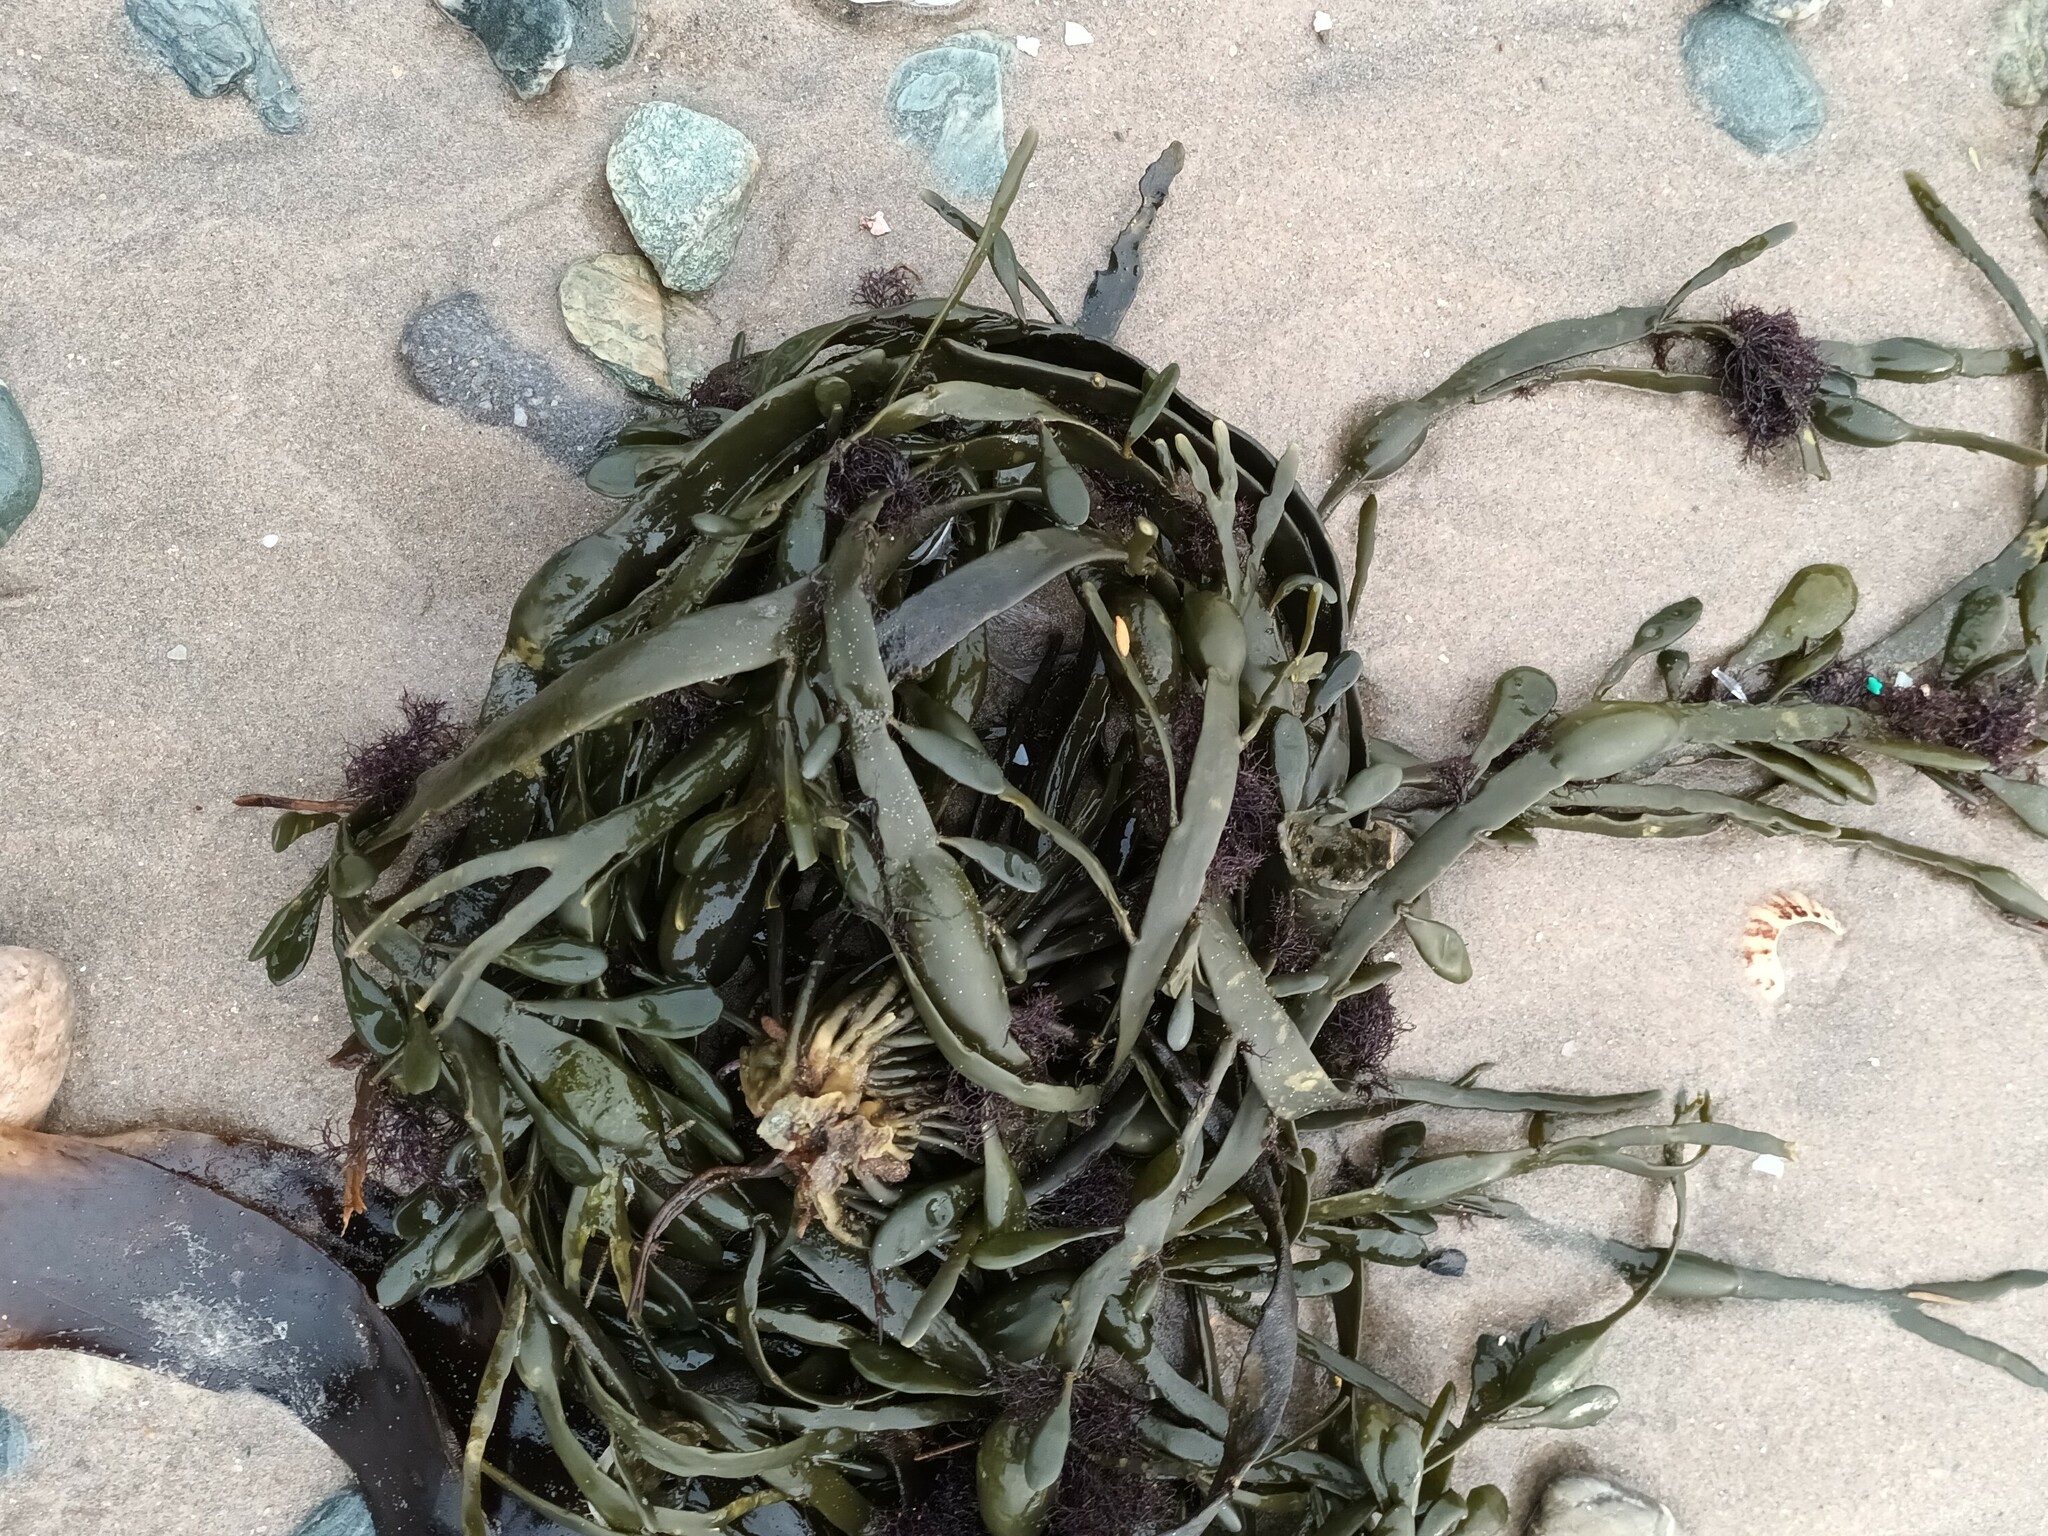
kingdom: Chromista
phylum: Ochrophyta
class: Phaeophyceae
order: Fucales
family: Fucaceae
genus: Ascophyllum
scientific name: Ascophyllum nodosum
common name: Knotted wrack
